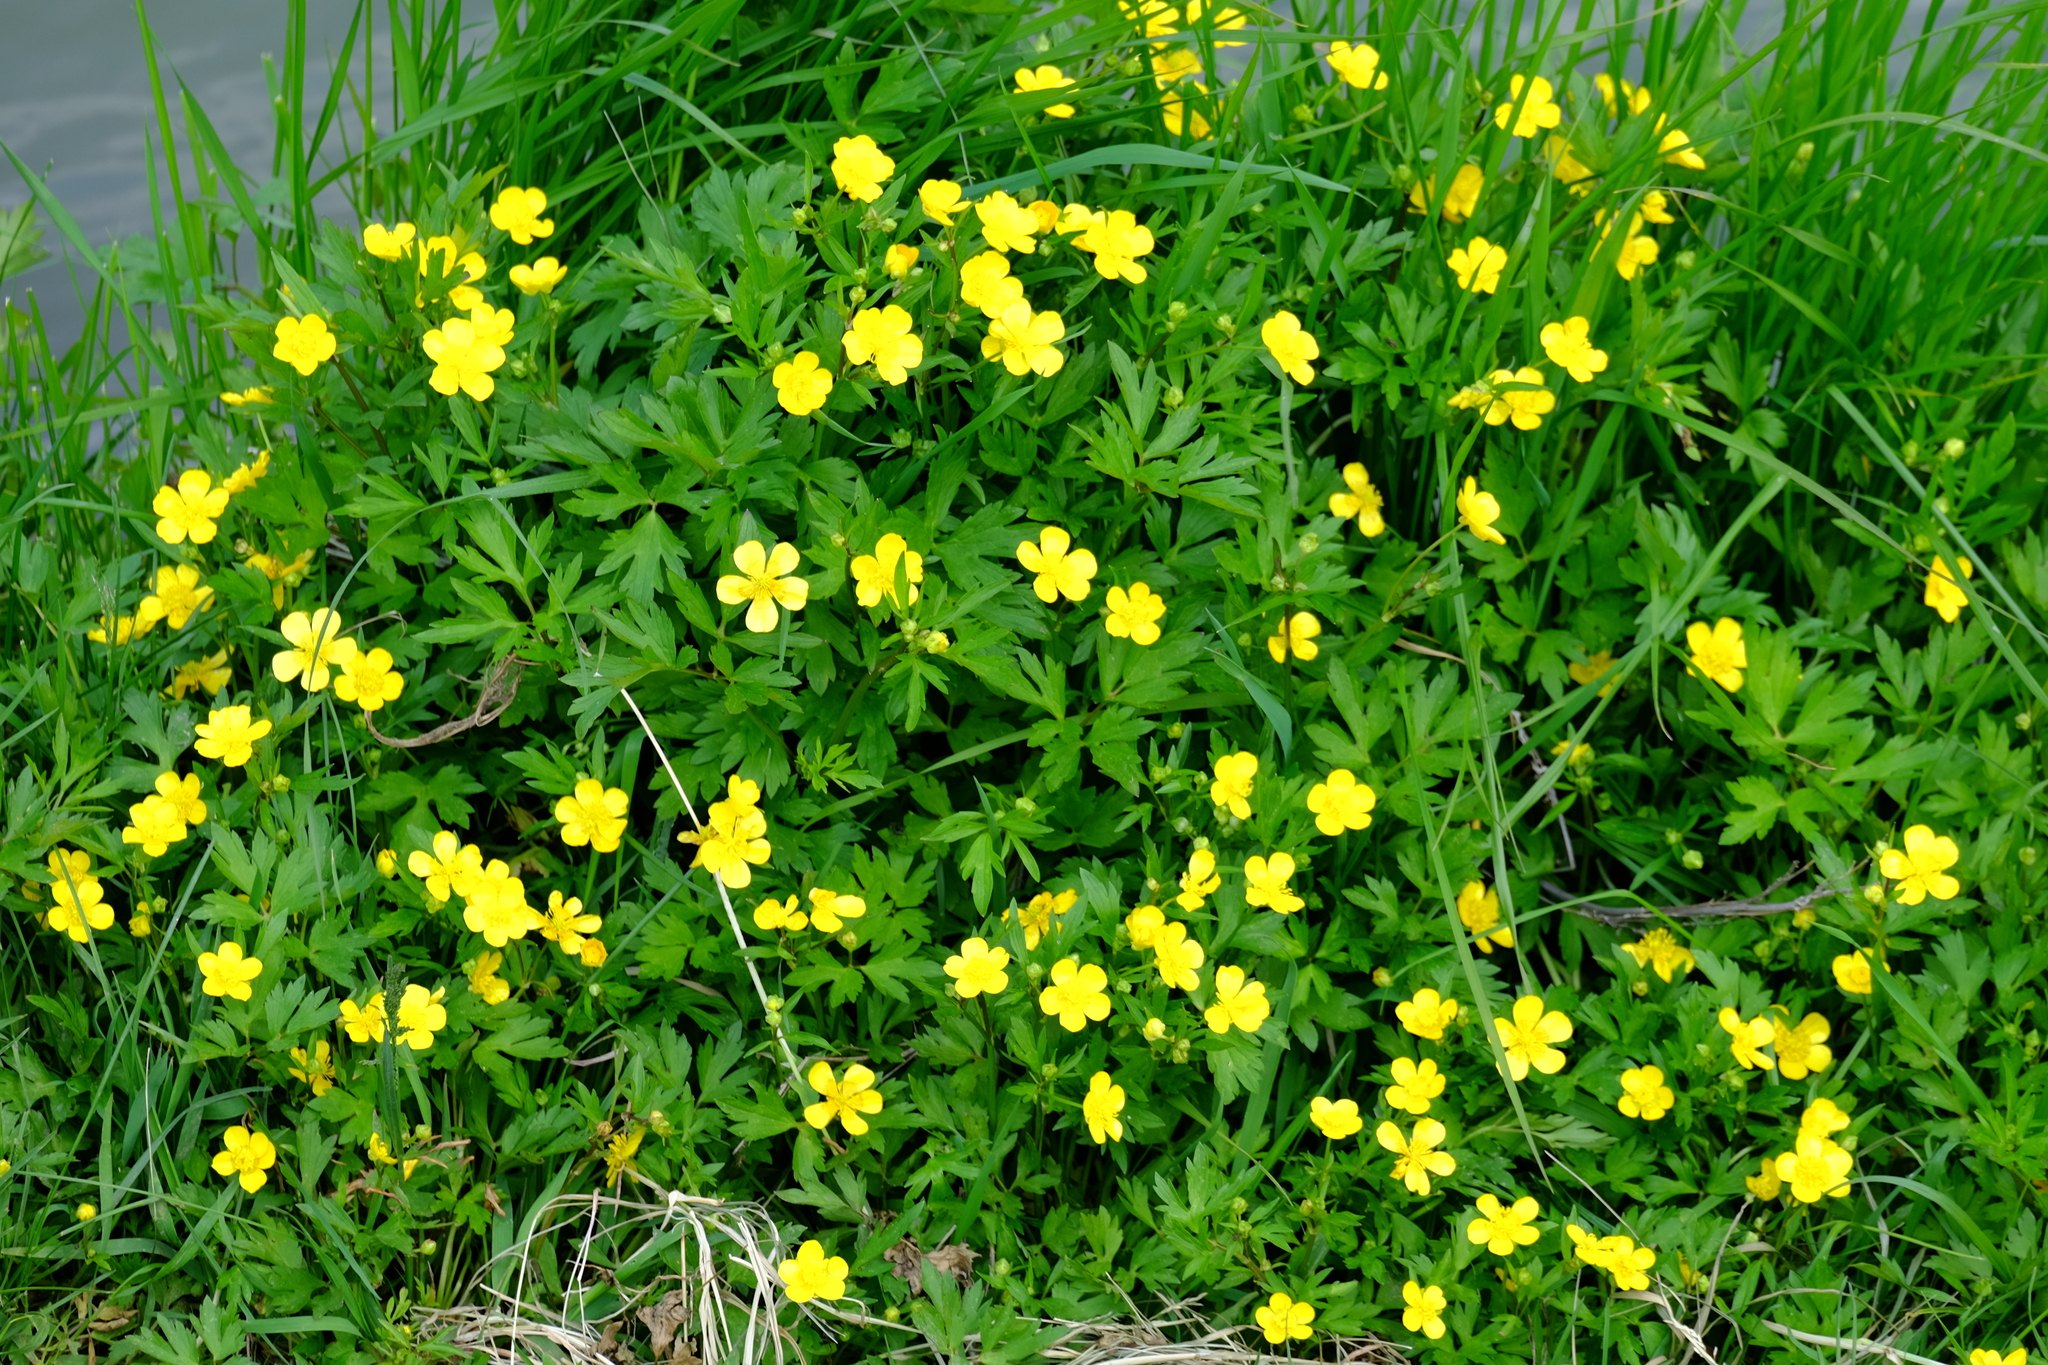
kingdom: Plantae
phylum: Tracheophyta
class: Magnoliopsida
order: Ranunculales
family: Ranunculaceae
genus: Ranunculus
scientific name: Ranunculus repens
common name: Creeping buttercup
